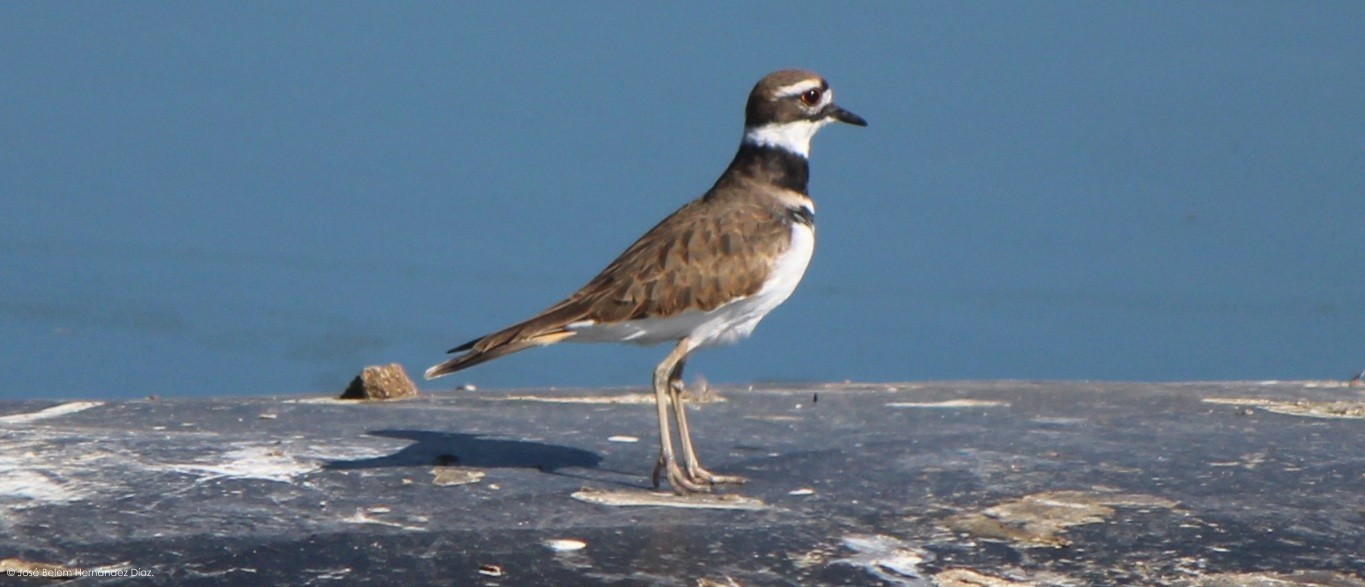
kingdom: Animalia
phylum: Chordata
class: Aves
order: Charadriiformes
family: Charadriidae
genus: Charadrius
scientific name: Charadrius vociferus
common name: Killdeer
